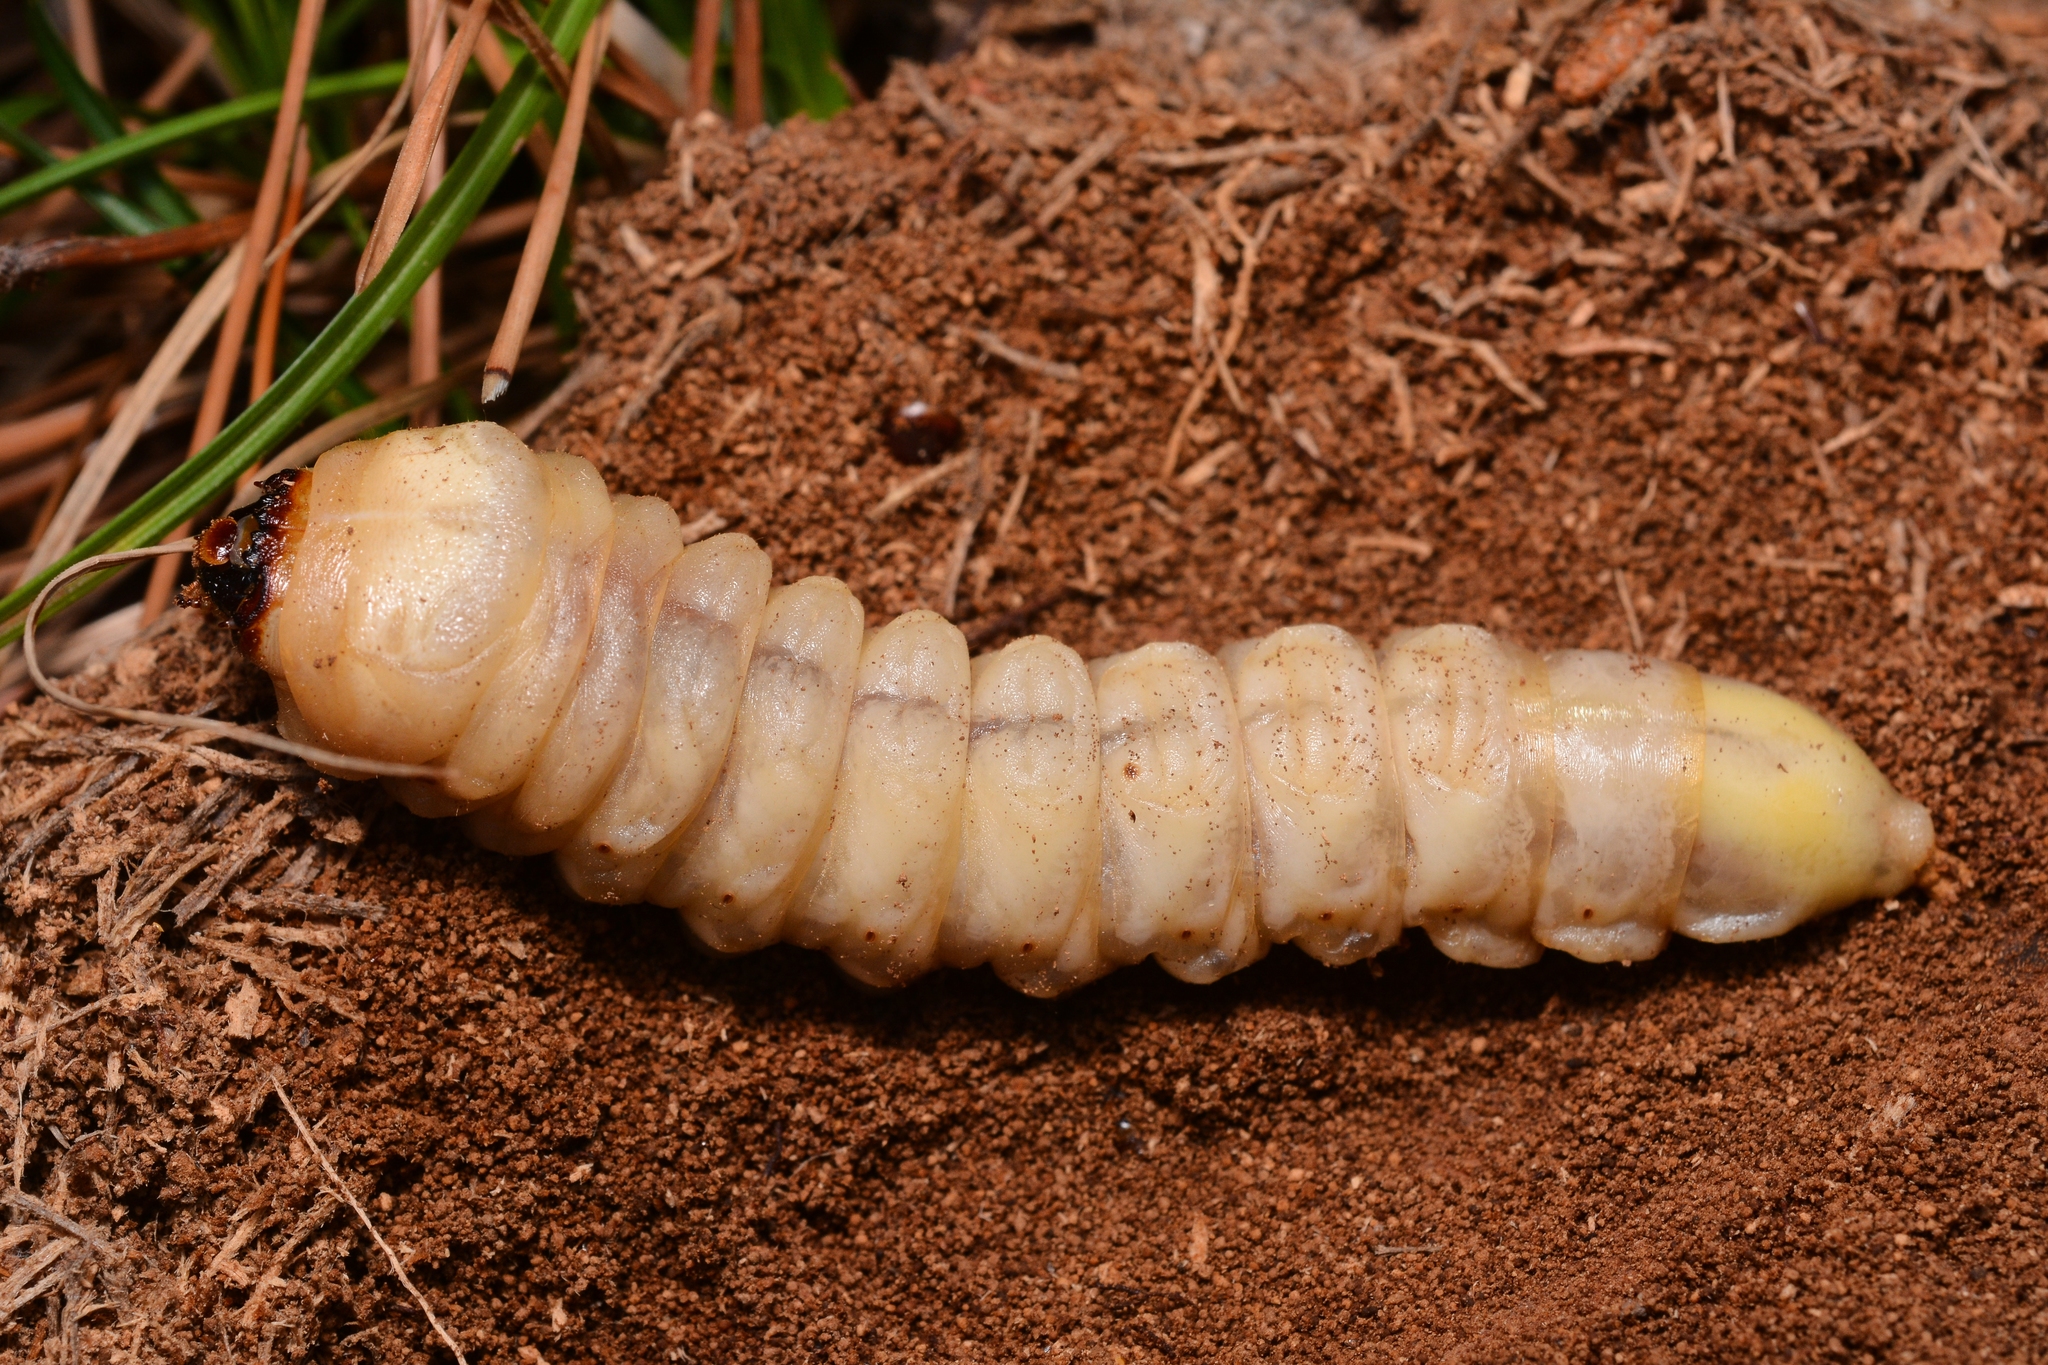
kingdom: Animalia
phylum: Arthropoda
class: Insecta
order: Coleoptera
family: Cerambycidae
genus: Ergates
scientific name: Ergates faber
